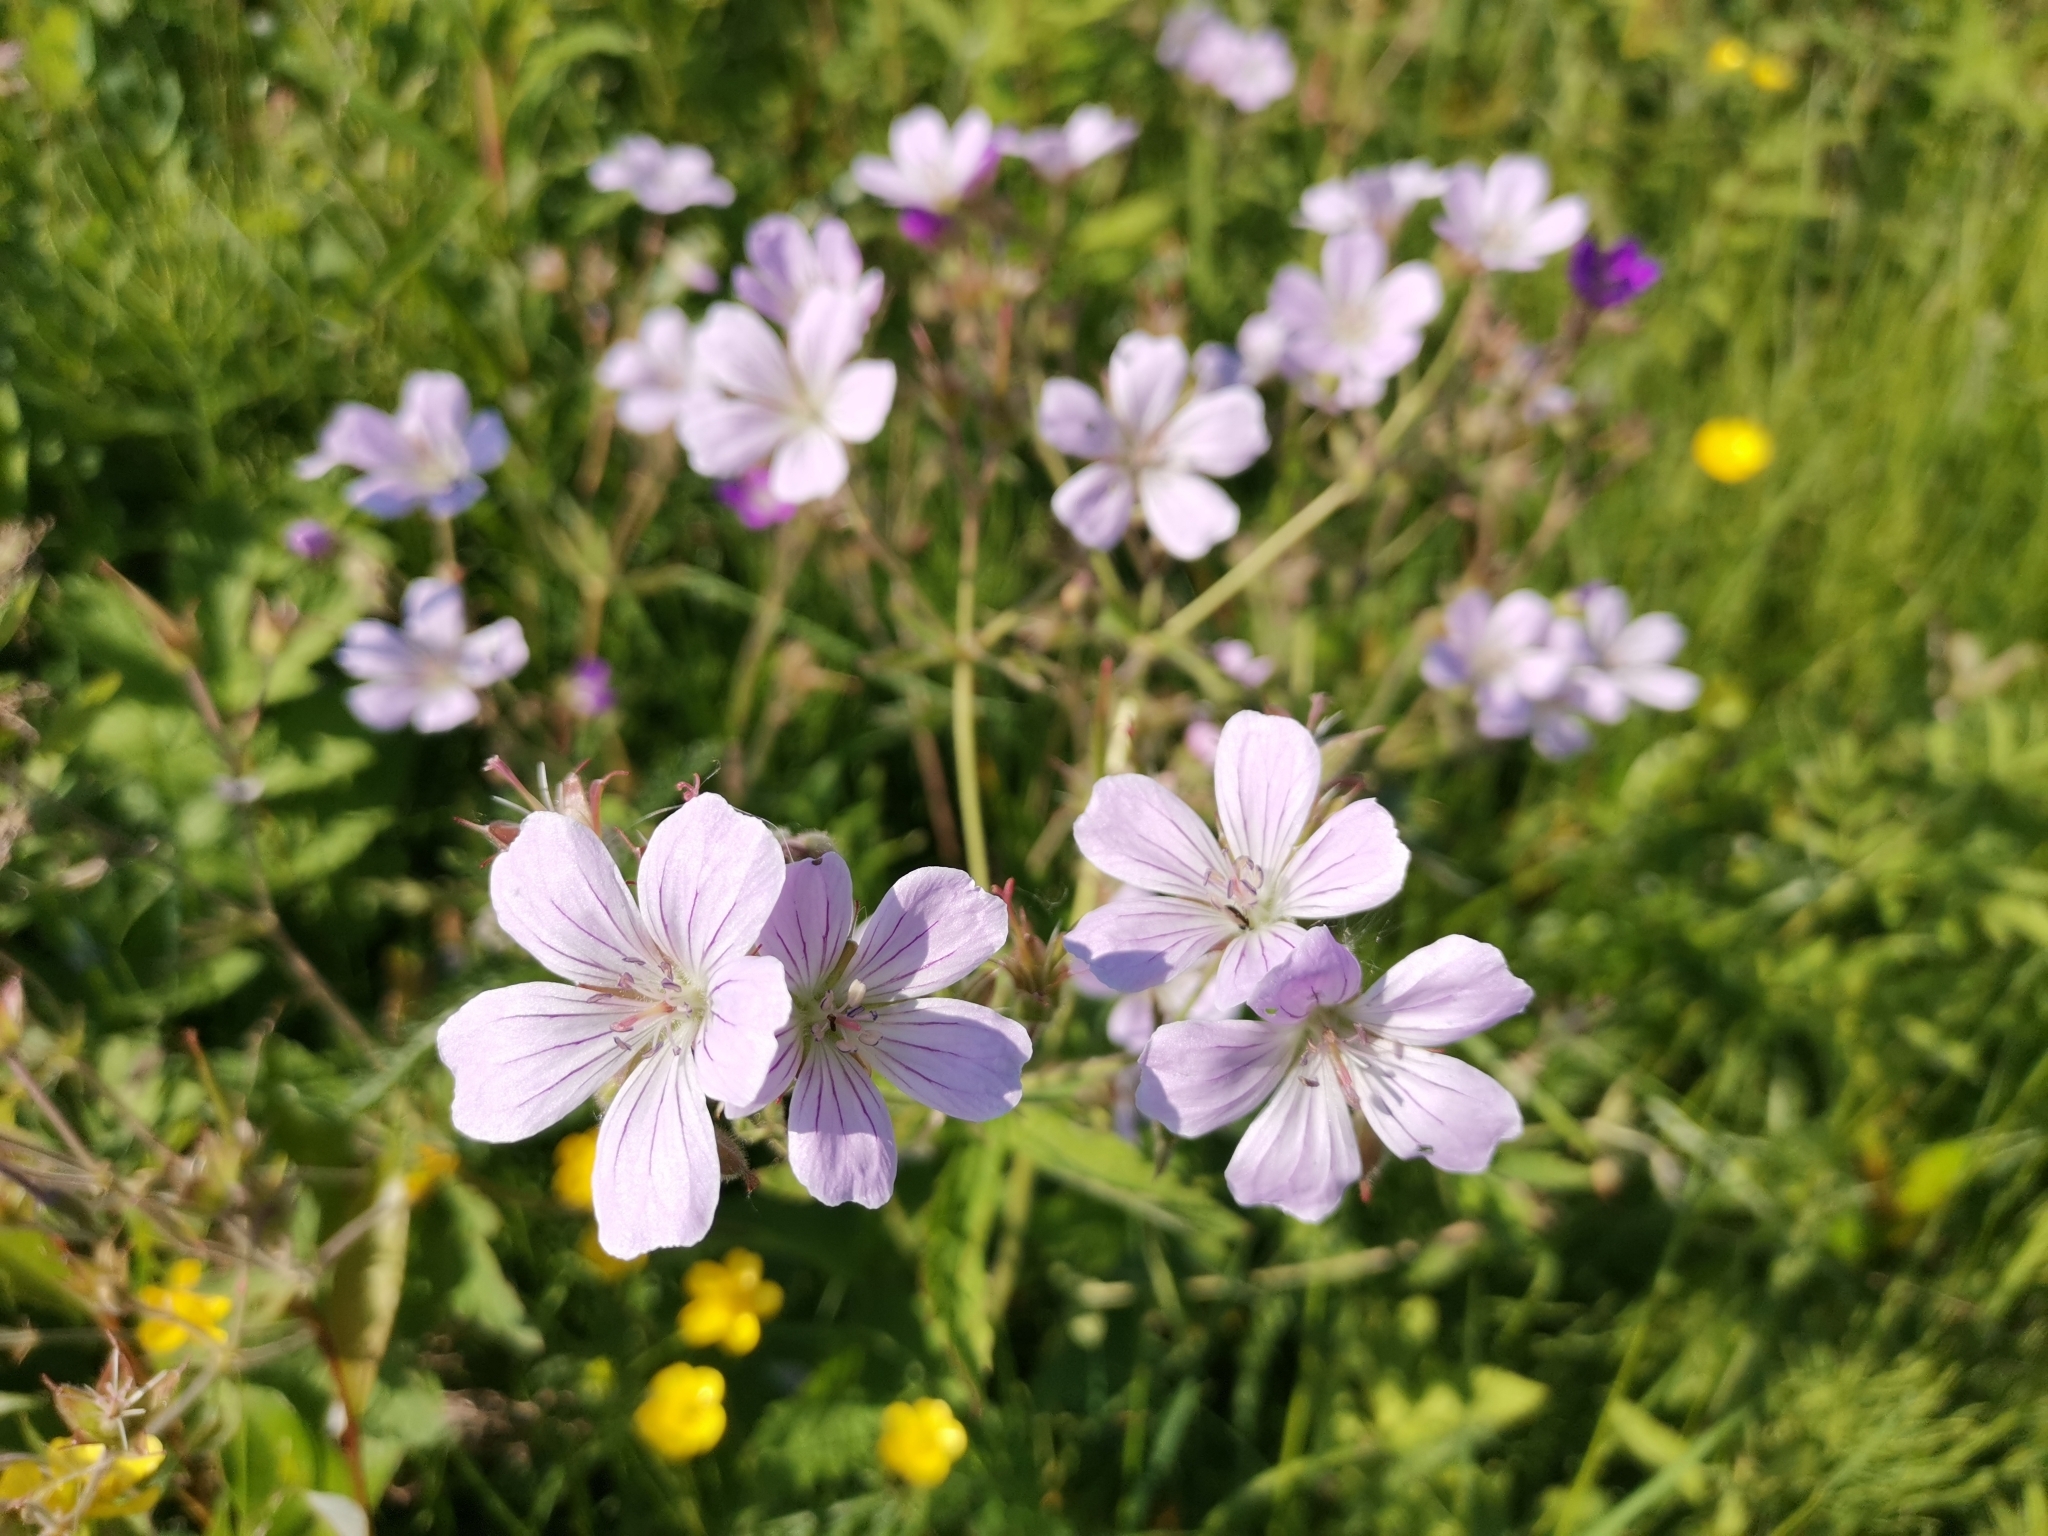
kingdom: Plantae
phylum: Tracheophyta
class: Magnoliopsida
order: Geraniales
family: Geraniaceae
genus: Geranium
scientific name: Geranium sylvaticum
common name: Wood crane's-bill
